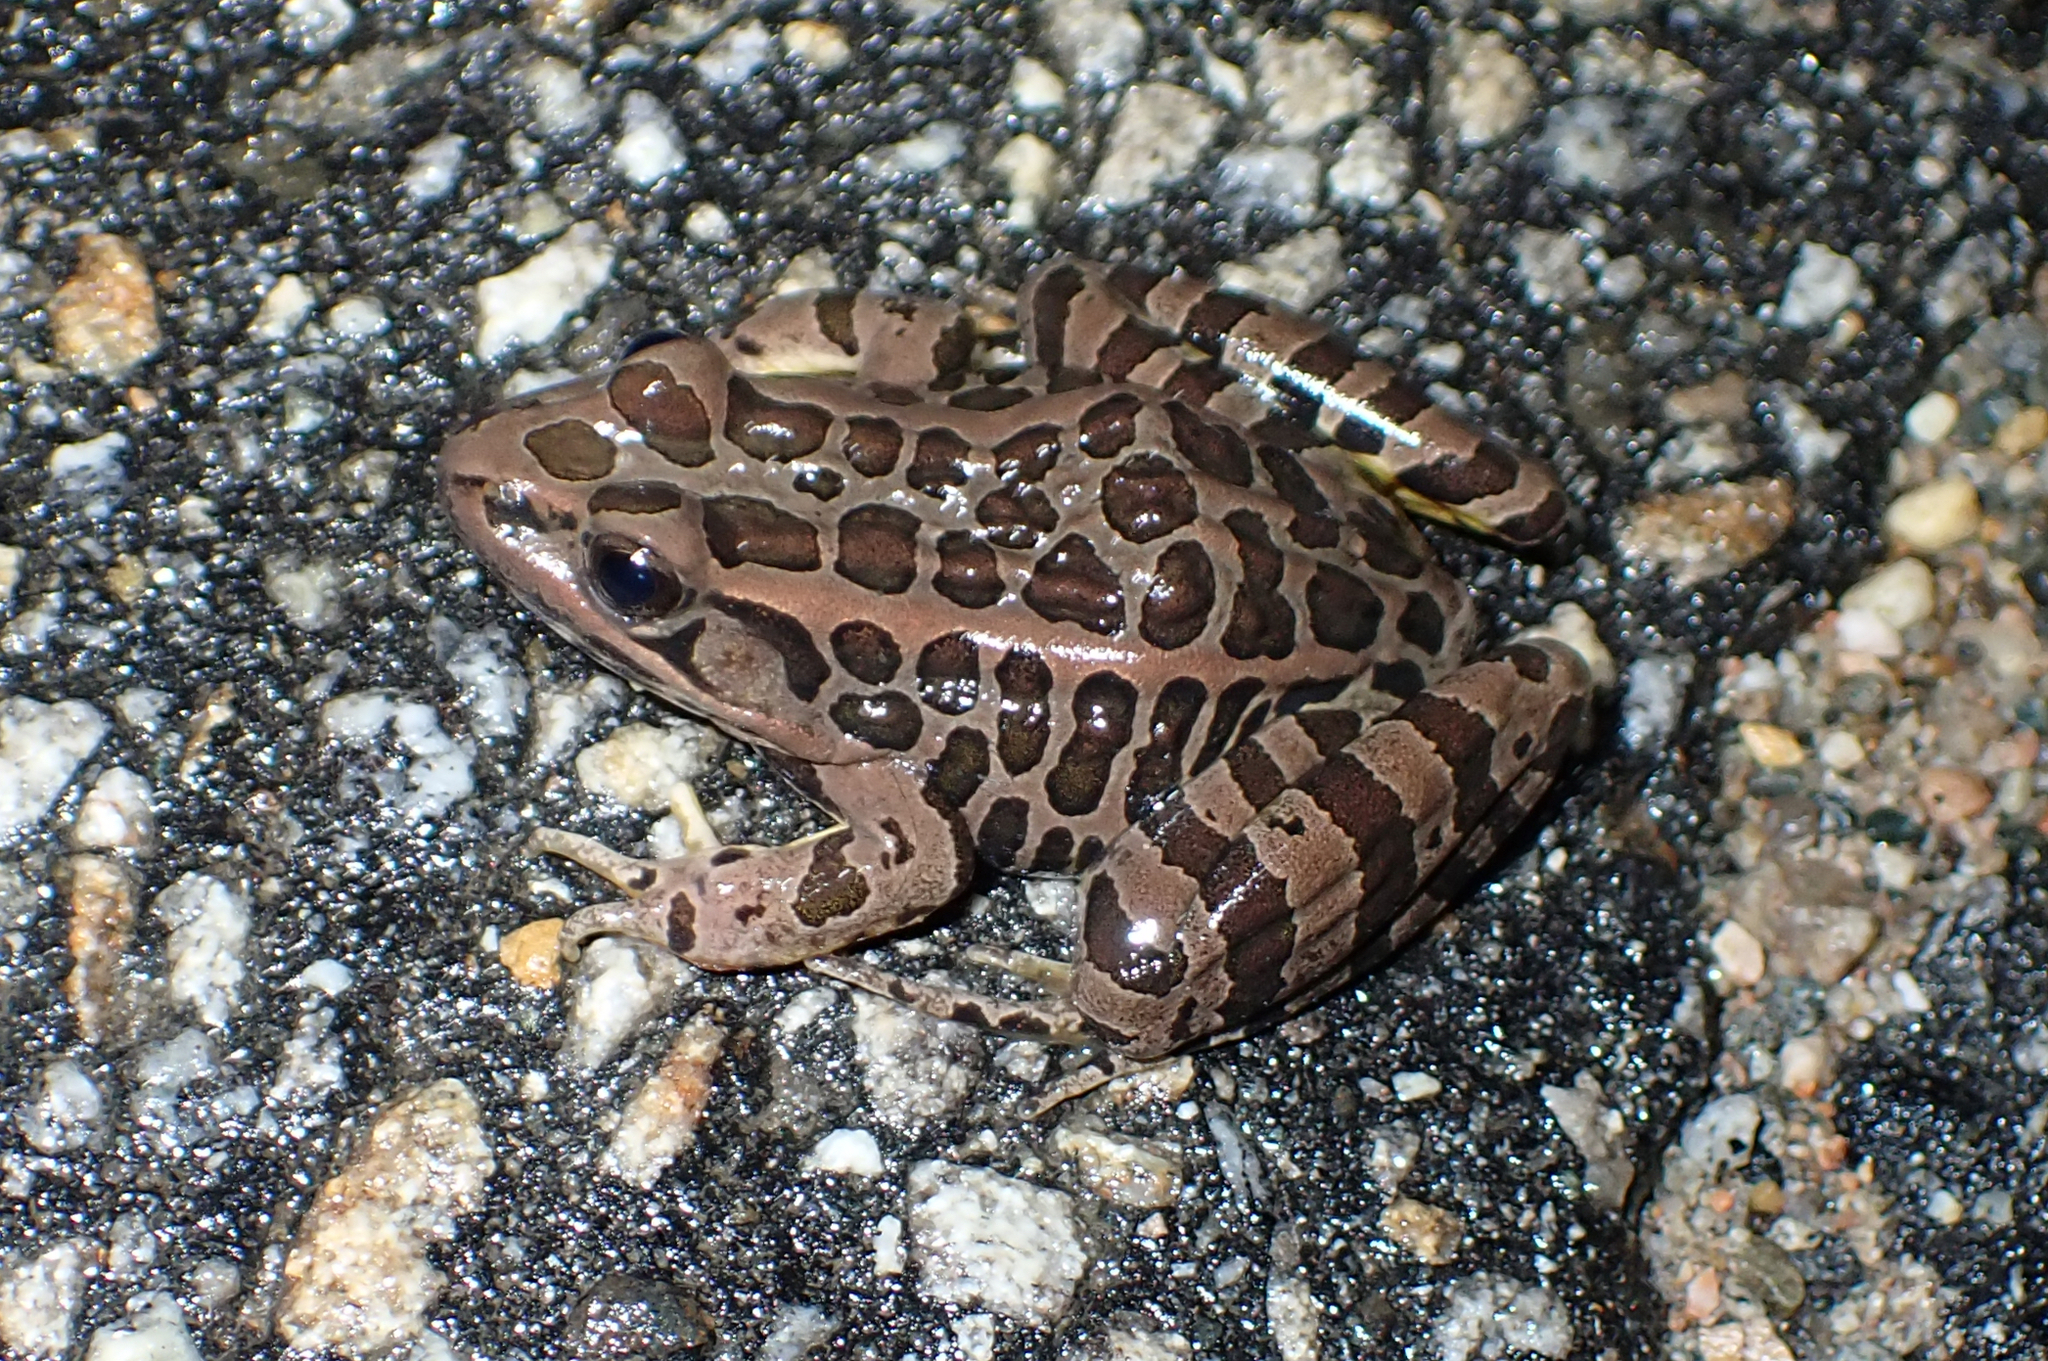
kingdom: Animalia
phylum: Chordata
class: Amphibia
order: Anura
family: Ranidae
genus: Lithobates
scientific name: Lithobates palustris
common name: Pickerel frog
